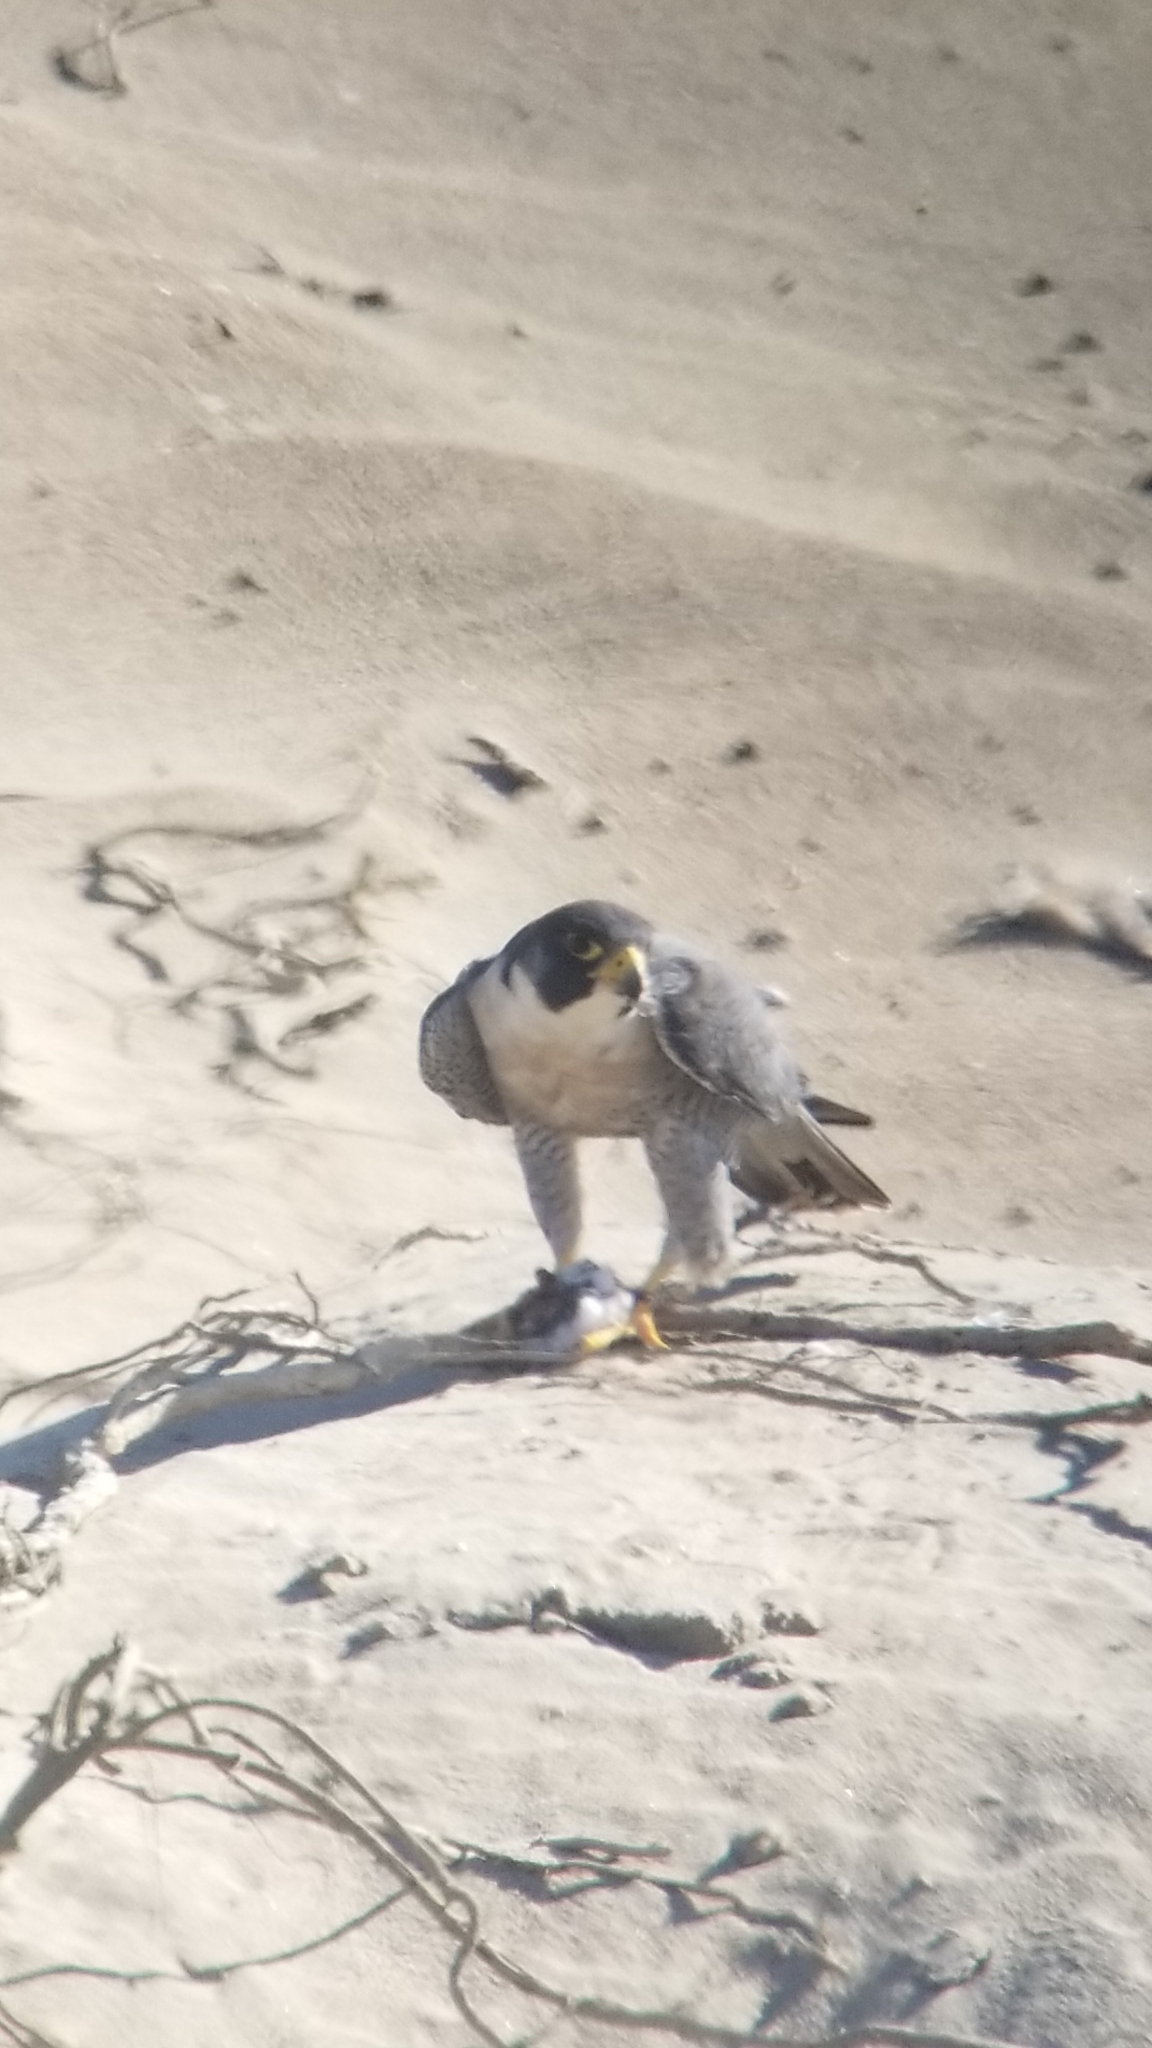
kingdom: Animalia
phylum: Chordata
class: Aves
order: Falconiformes
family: Falconidae
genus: Falco
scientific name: Falco peregrinus
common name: Peregrine falcon
